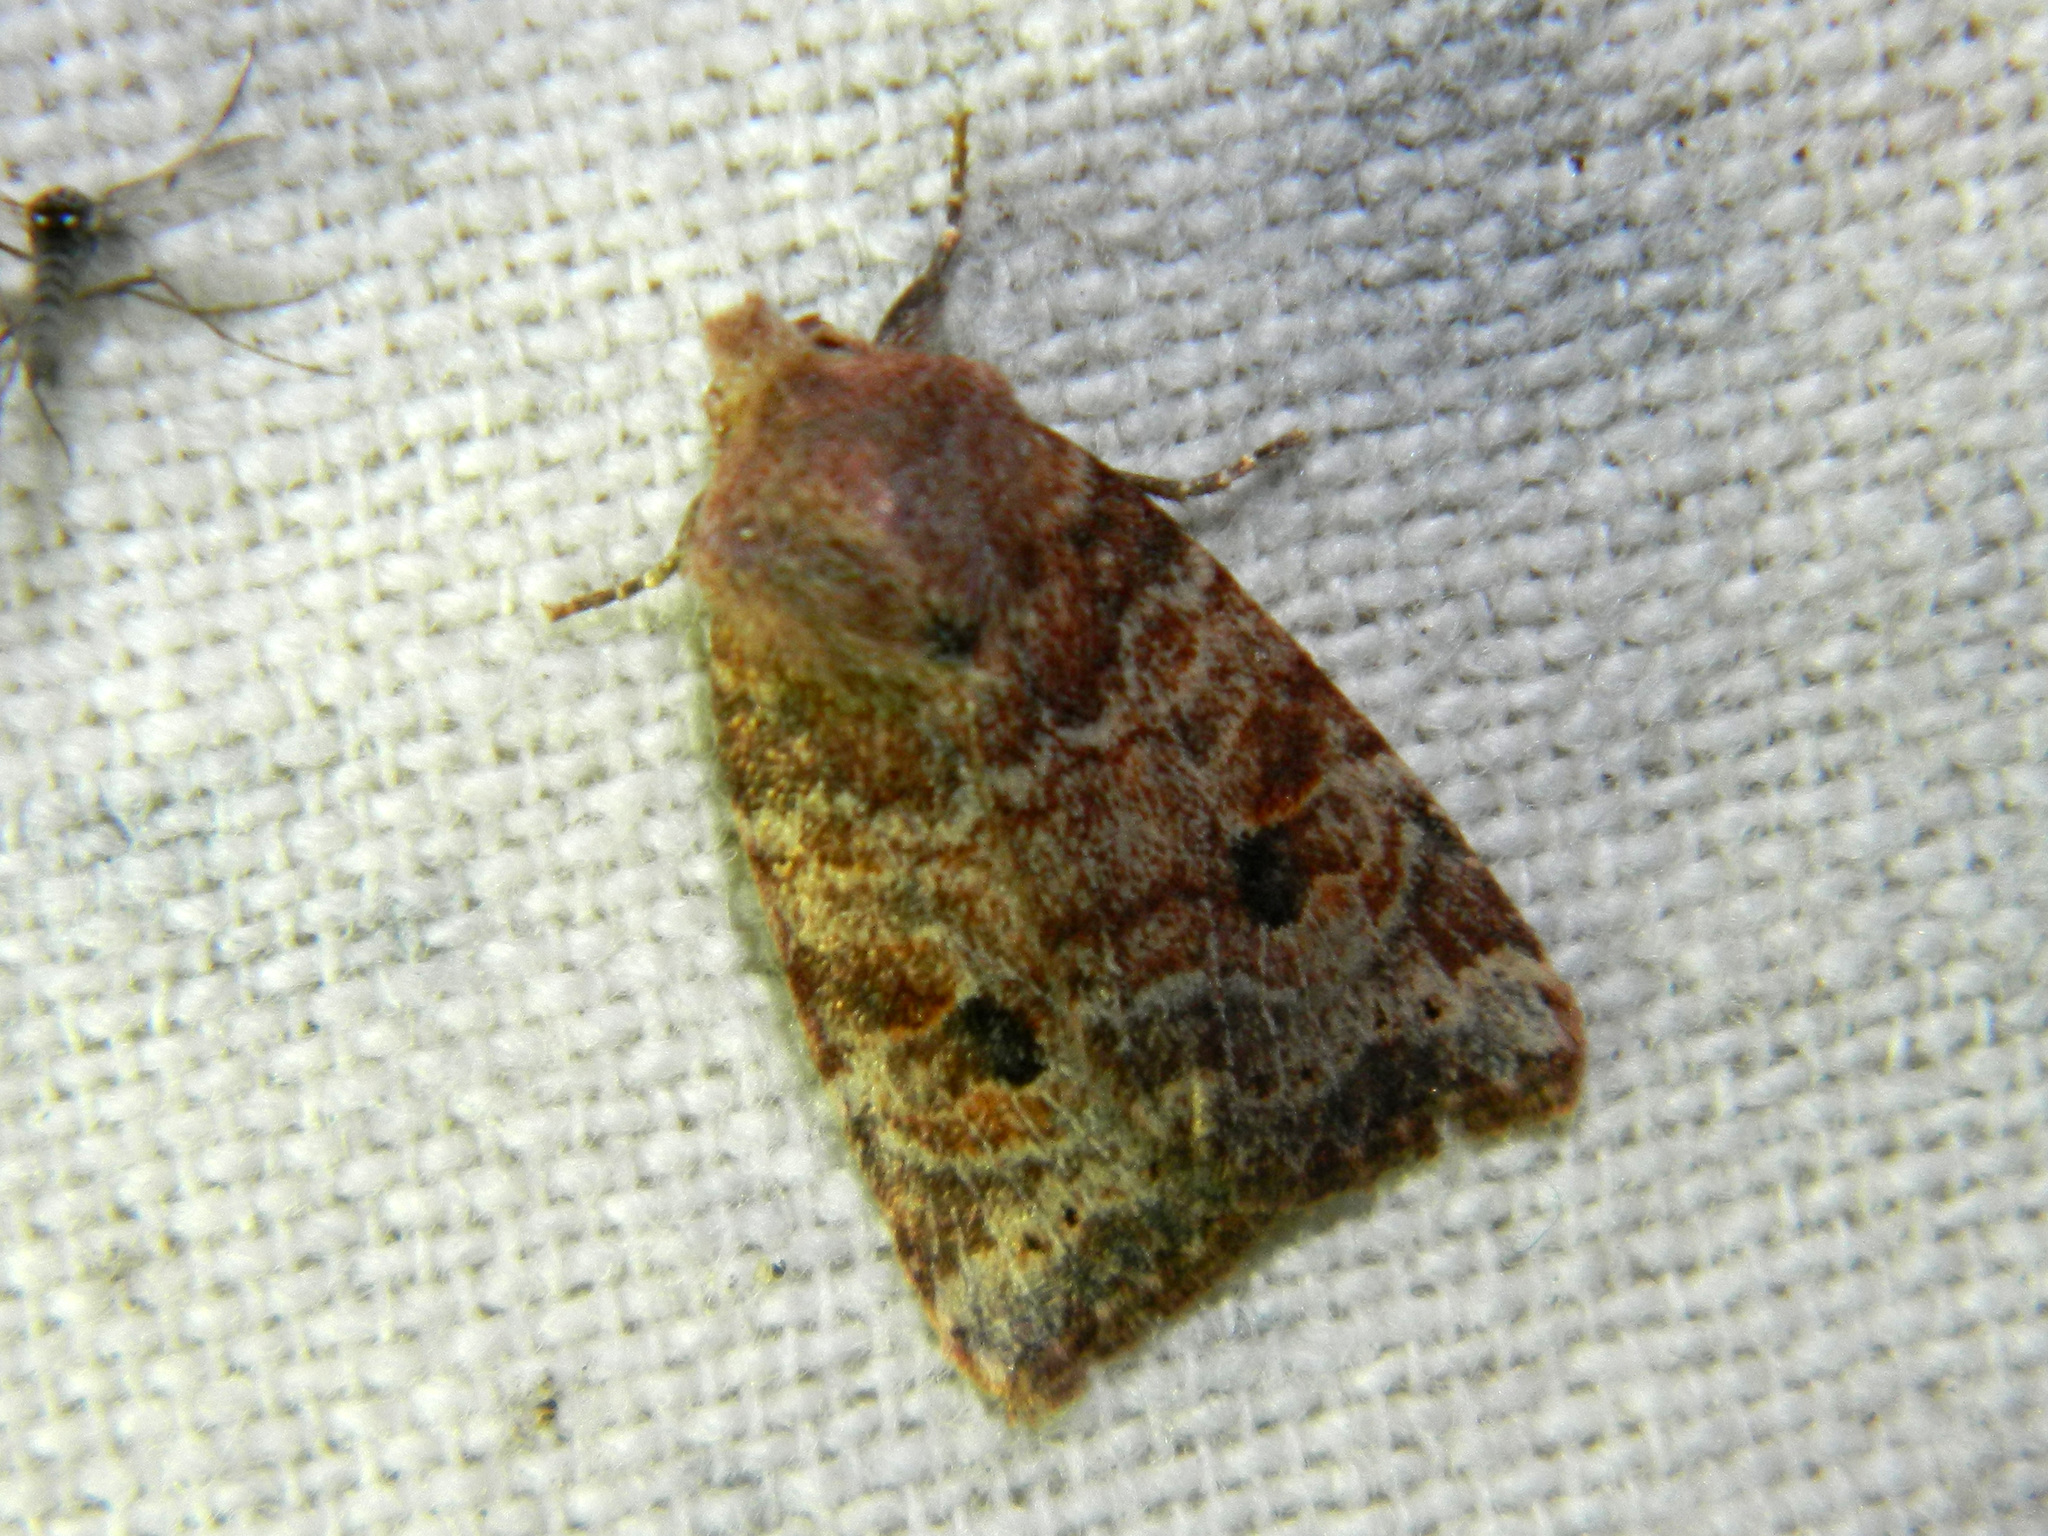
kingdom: Animalia
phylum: Arthropoda
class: Insecta
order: Lepidoptera
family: Noctuidae
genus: Anathix
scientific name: Anathix puta
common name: Puta sallow
